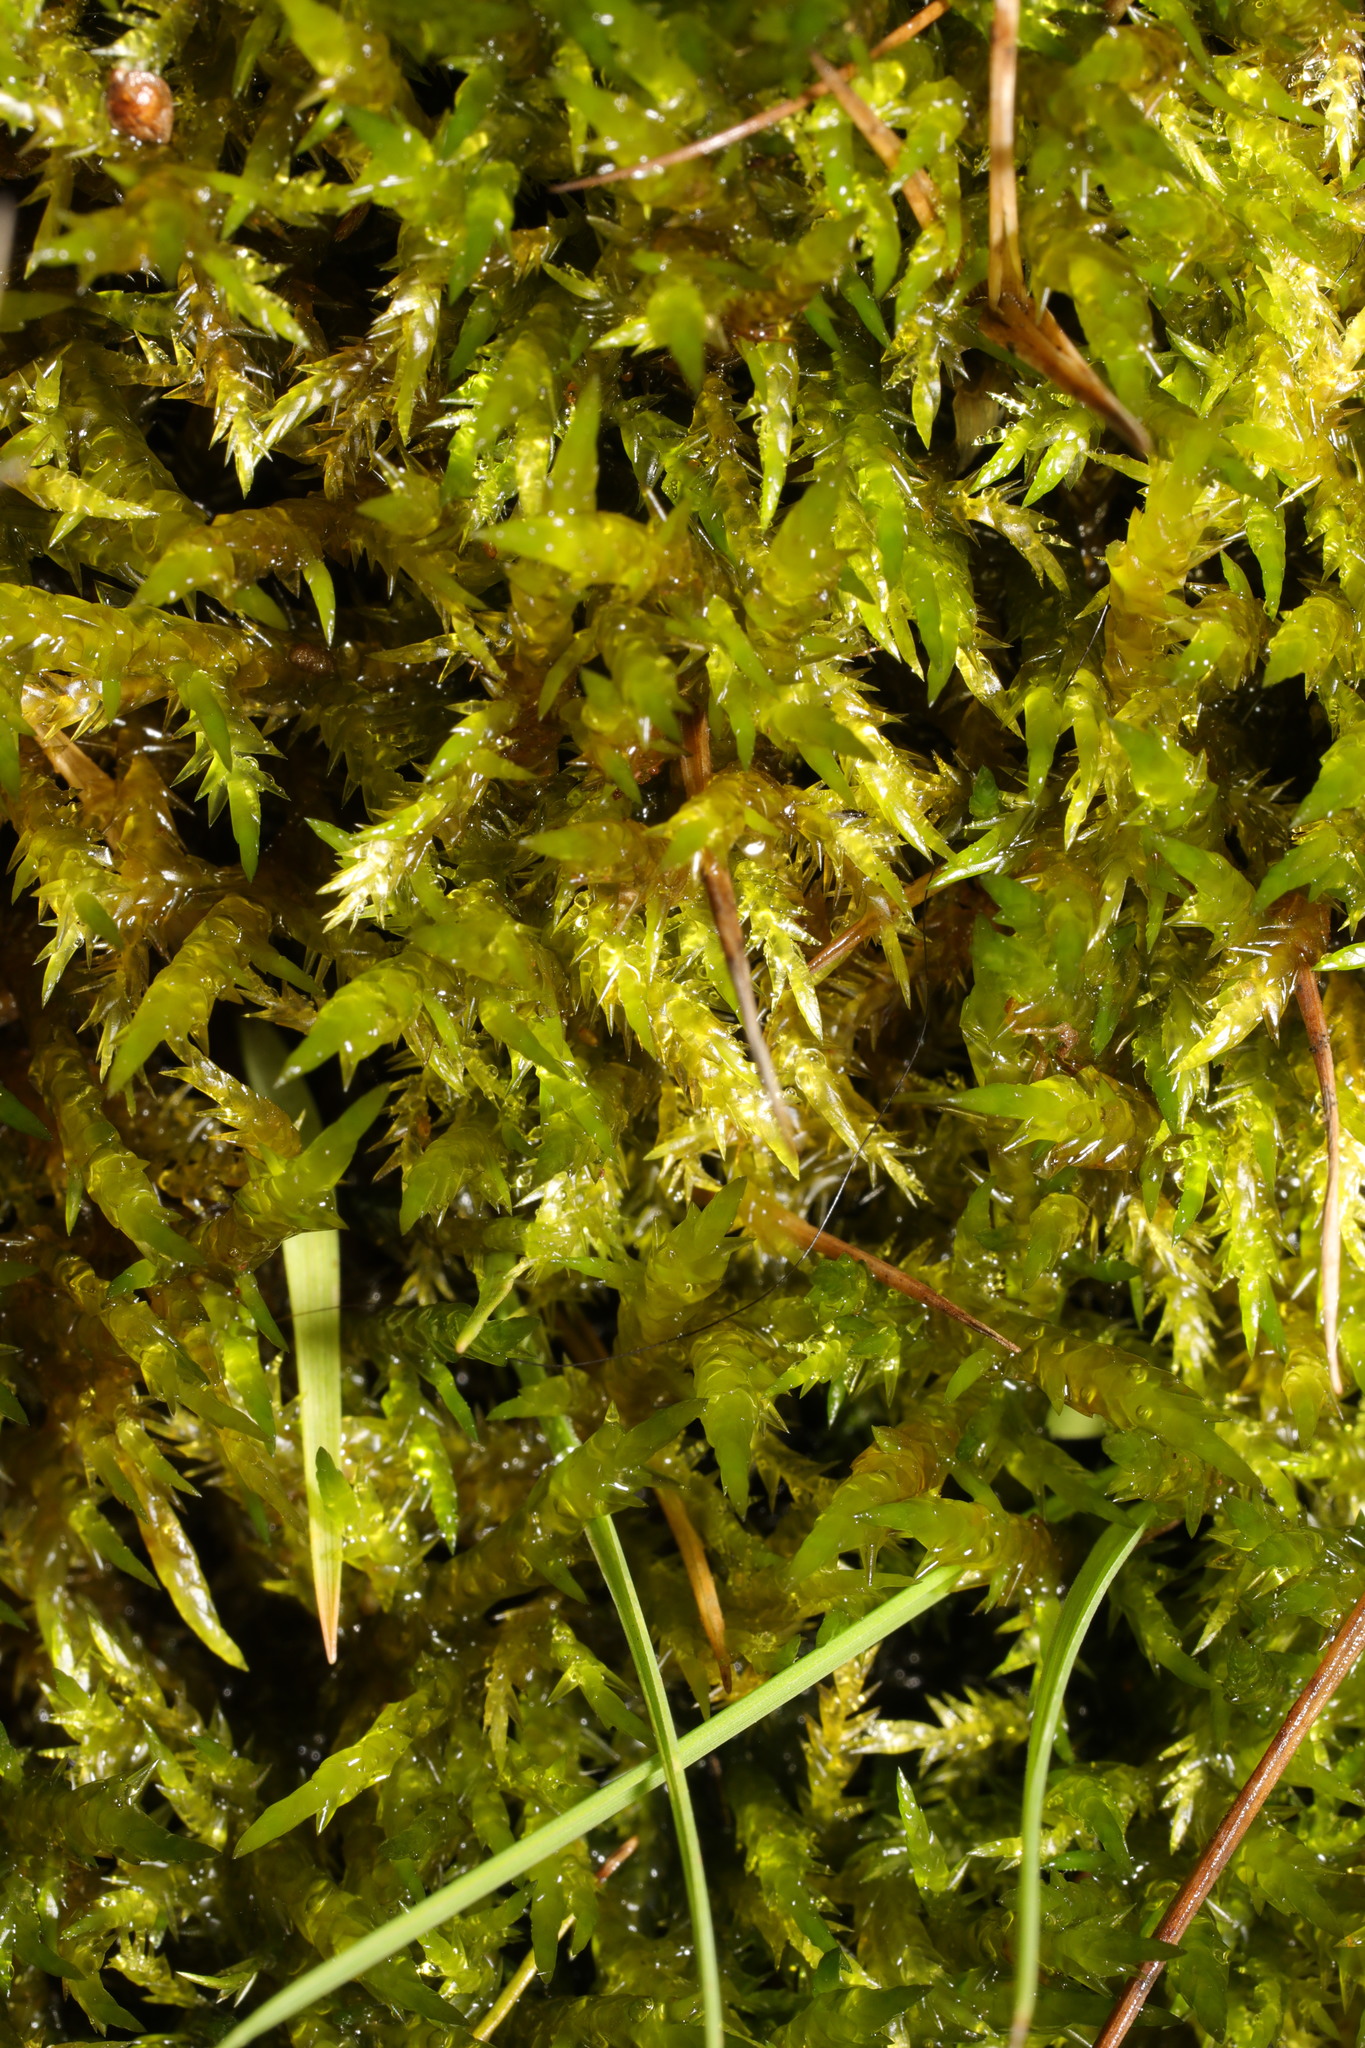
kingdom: Plantae
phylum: Bryophyta
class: Bryopsida
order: Hypnales
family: Pylaisiaceae
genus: Calliergonella
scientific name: Calliergonella cuspidata
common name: Common large wetland moss
